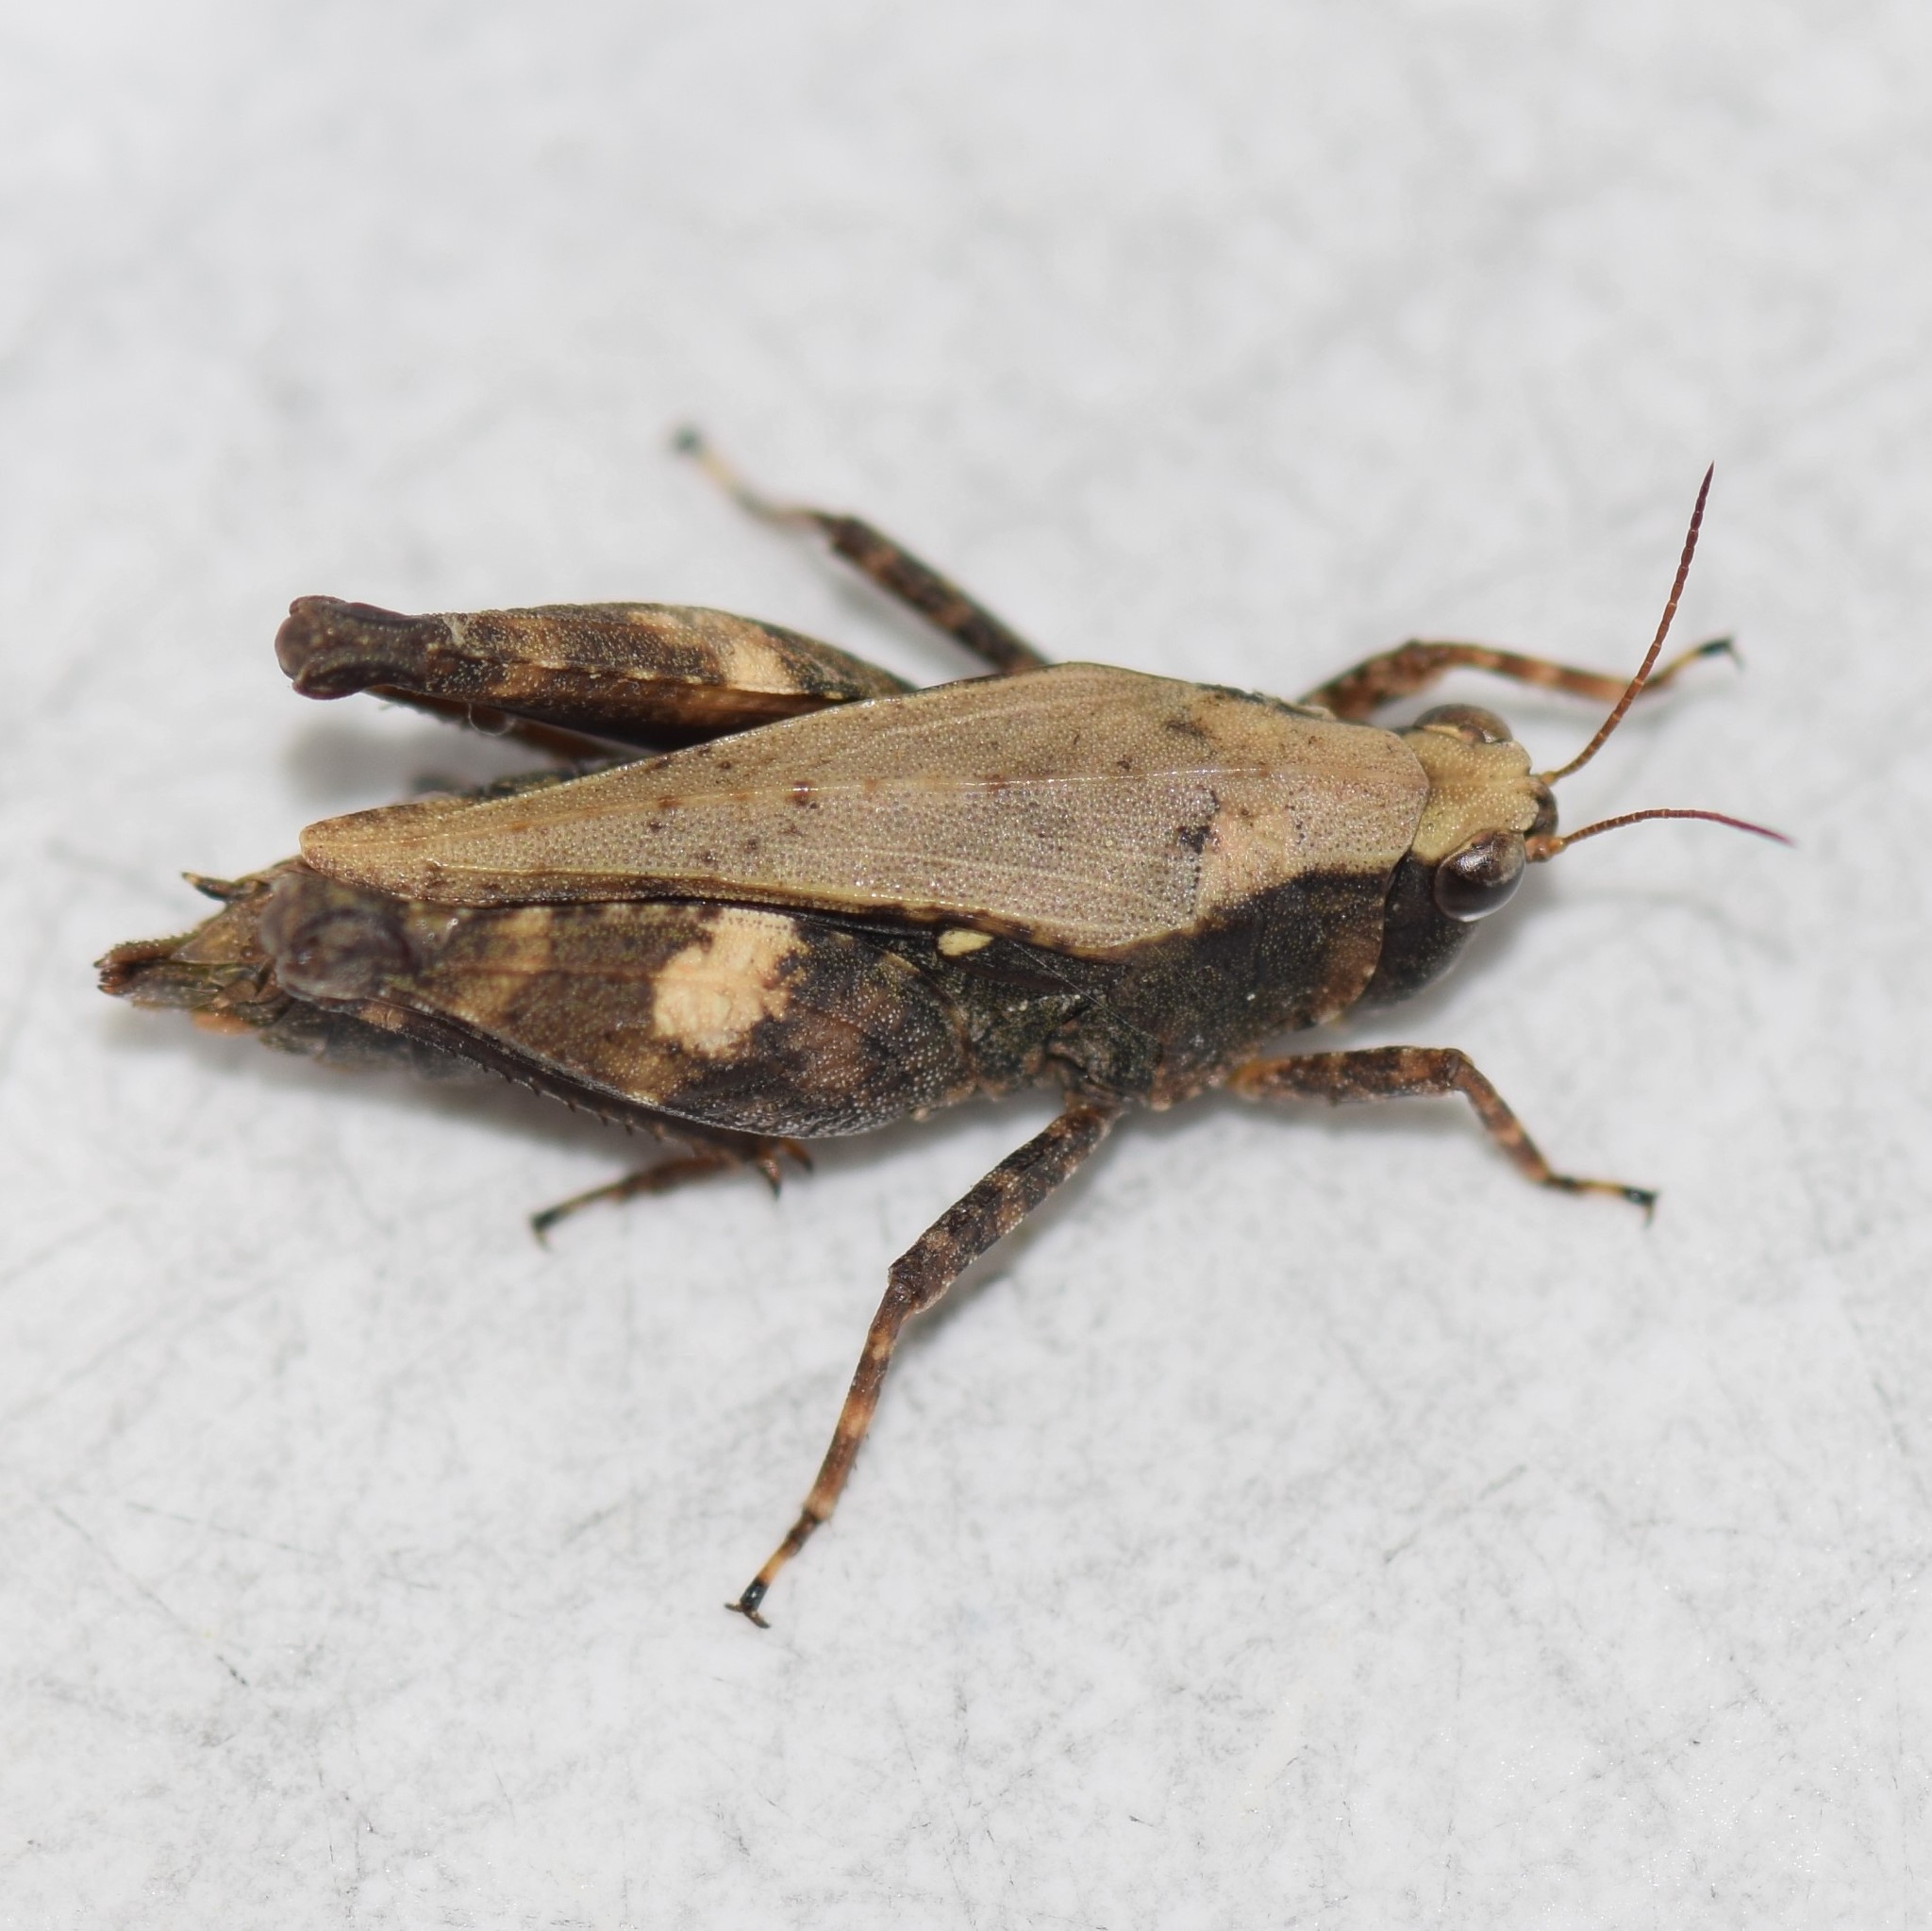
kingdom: Animalia
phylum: Arthropoda
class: Insecta
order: Orthoptera
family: Tetrigidae
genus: Tettigidea
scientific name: Tettigidea laterale
